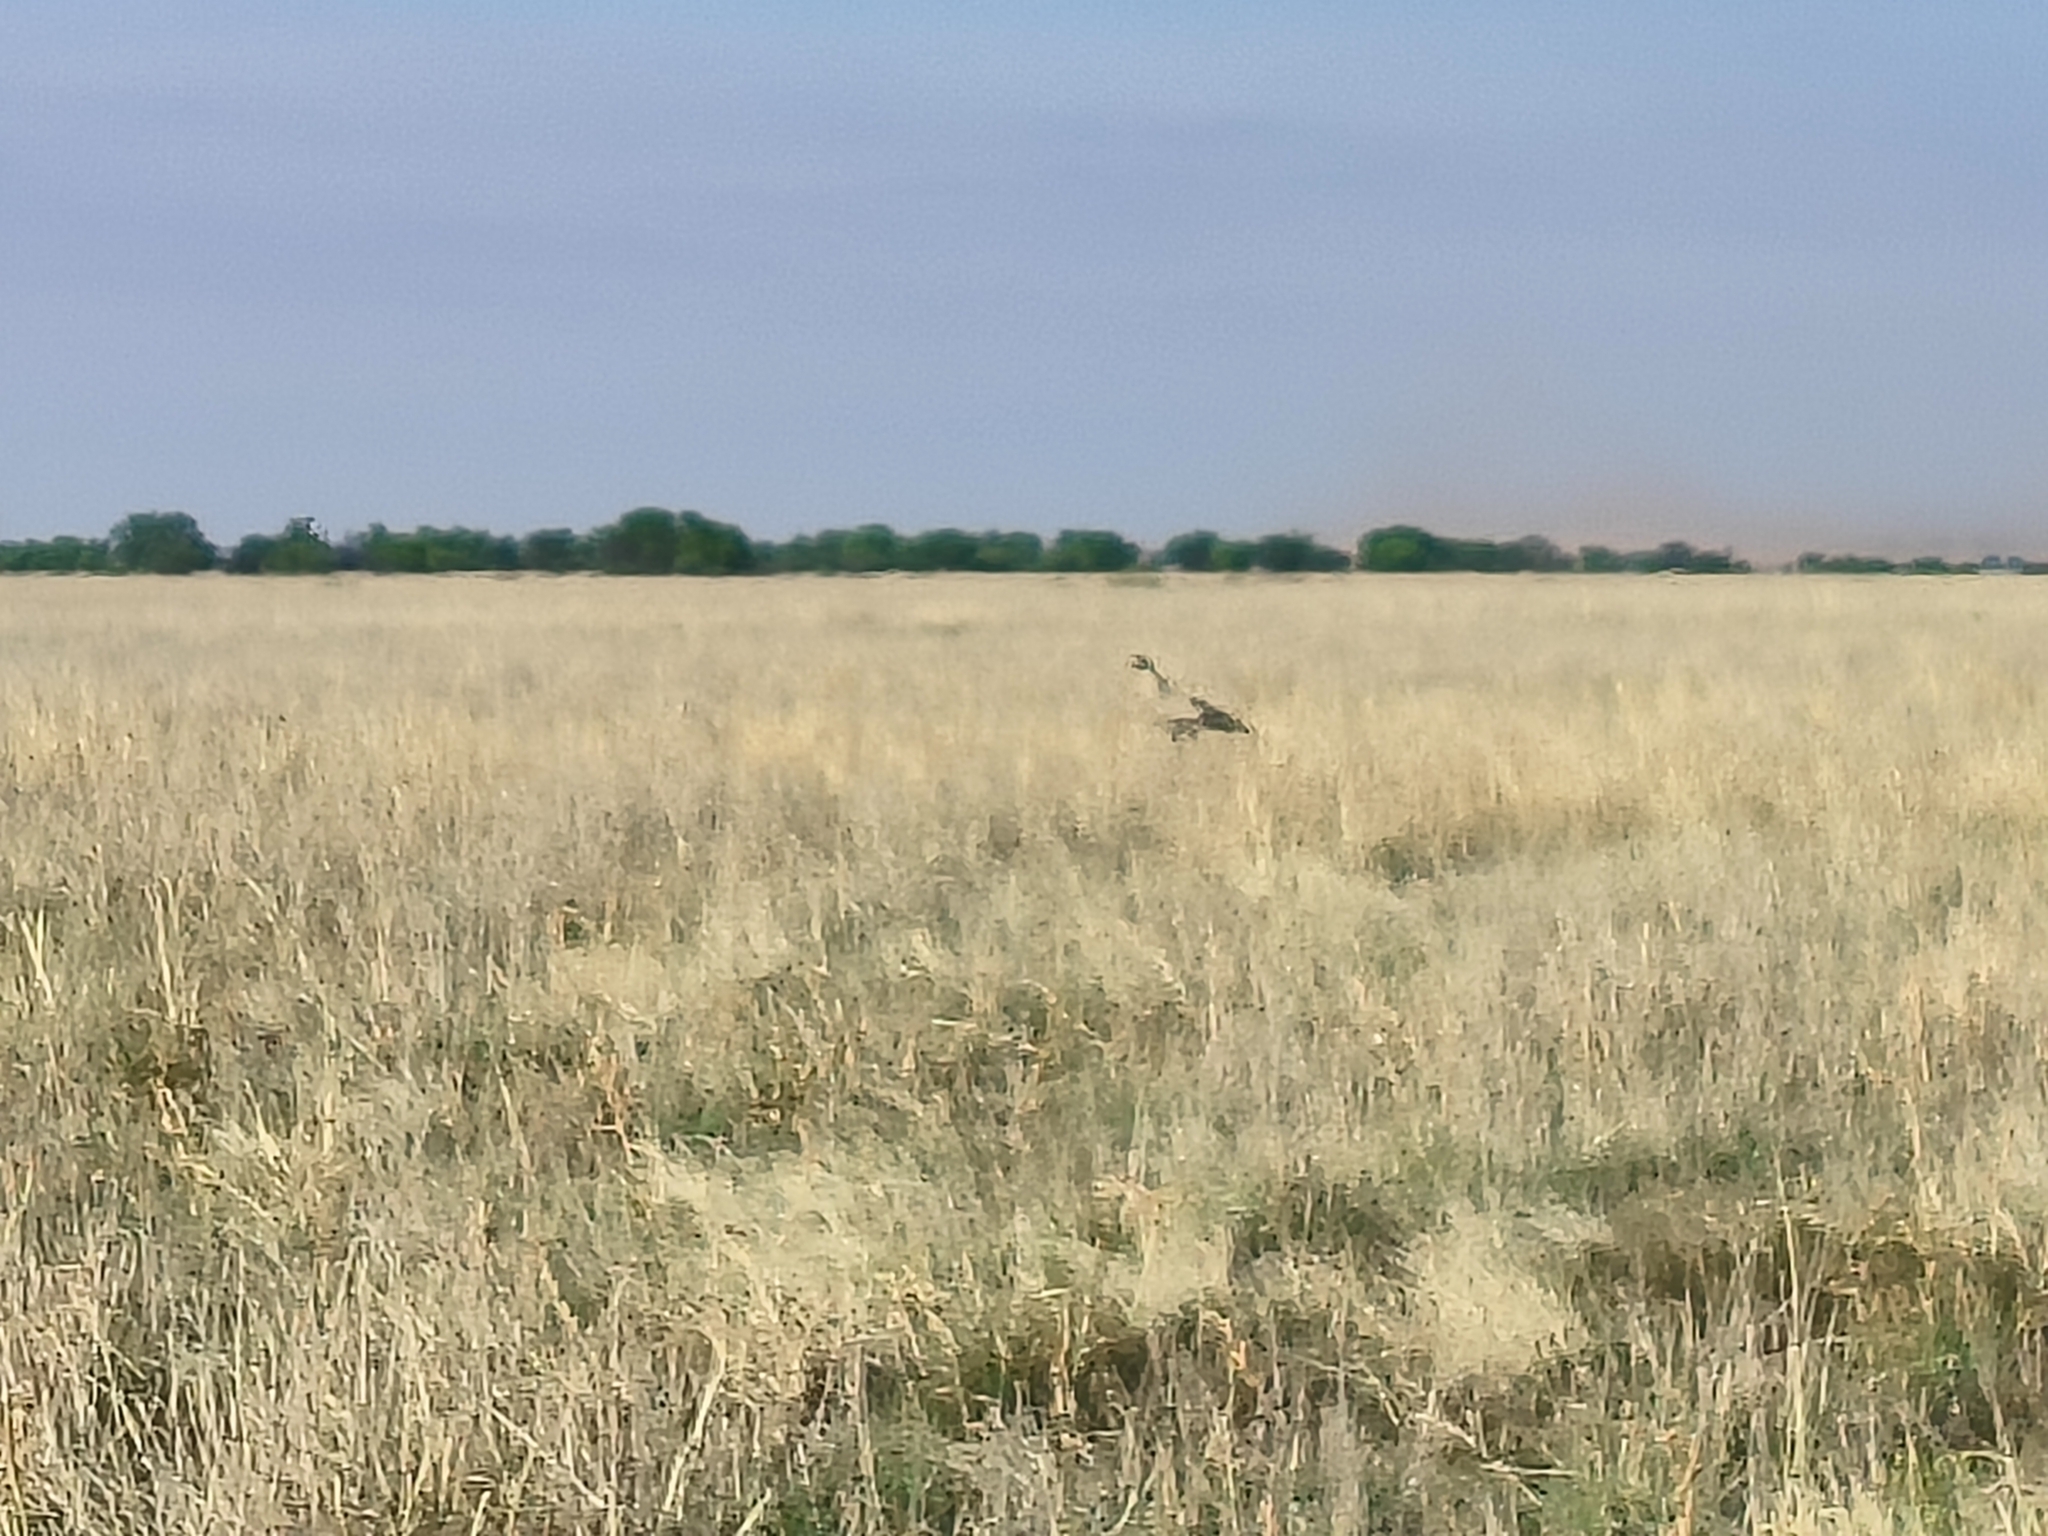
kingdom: Animalia
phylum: Chordata
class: Aves
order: Accipitriformes
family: Sagittariidae
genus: Sagittarius
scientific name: Sagittarius serpentarius
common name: Secretarybird
